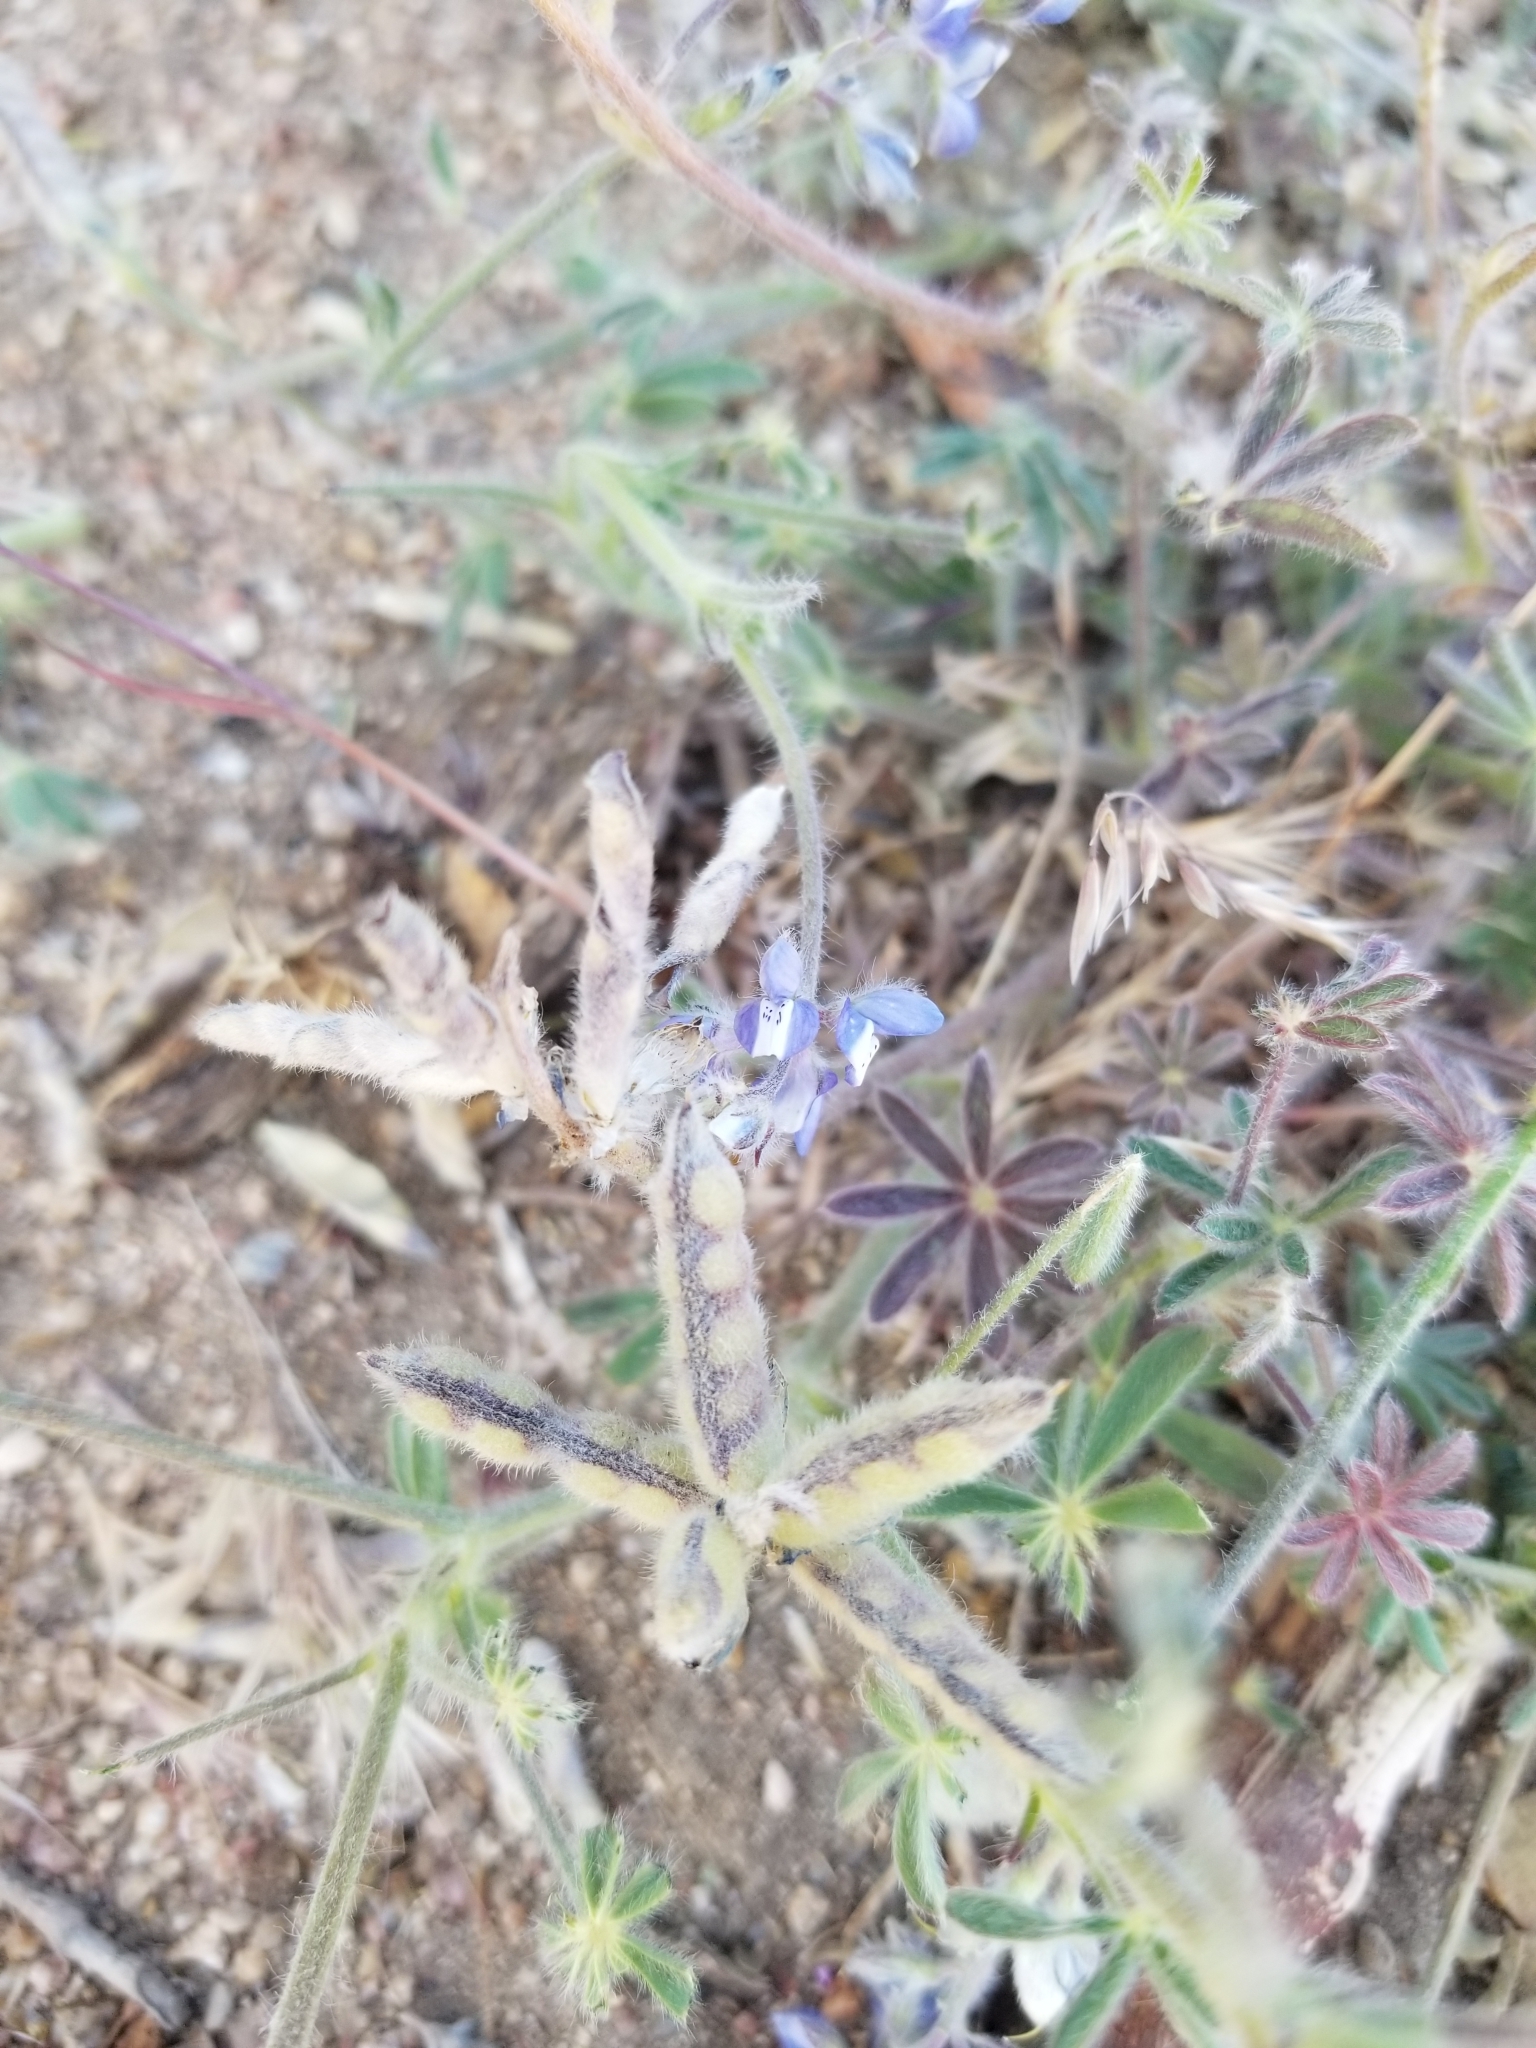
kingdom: Plantae
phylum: Tracheophyta
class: Magnoliopsida
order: Fabales
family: Fabaceae
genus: Lupinus
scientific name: Lupinus bicolor
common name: Miniature lupine
